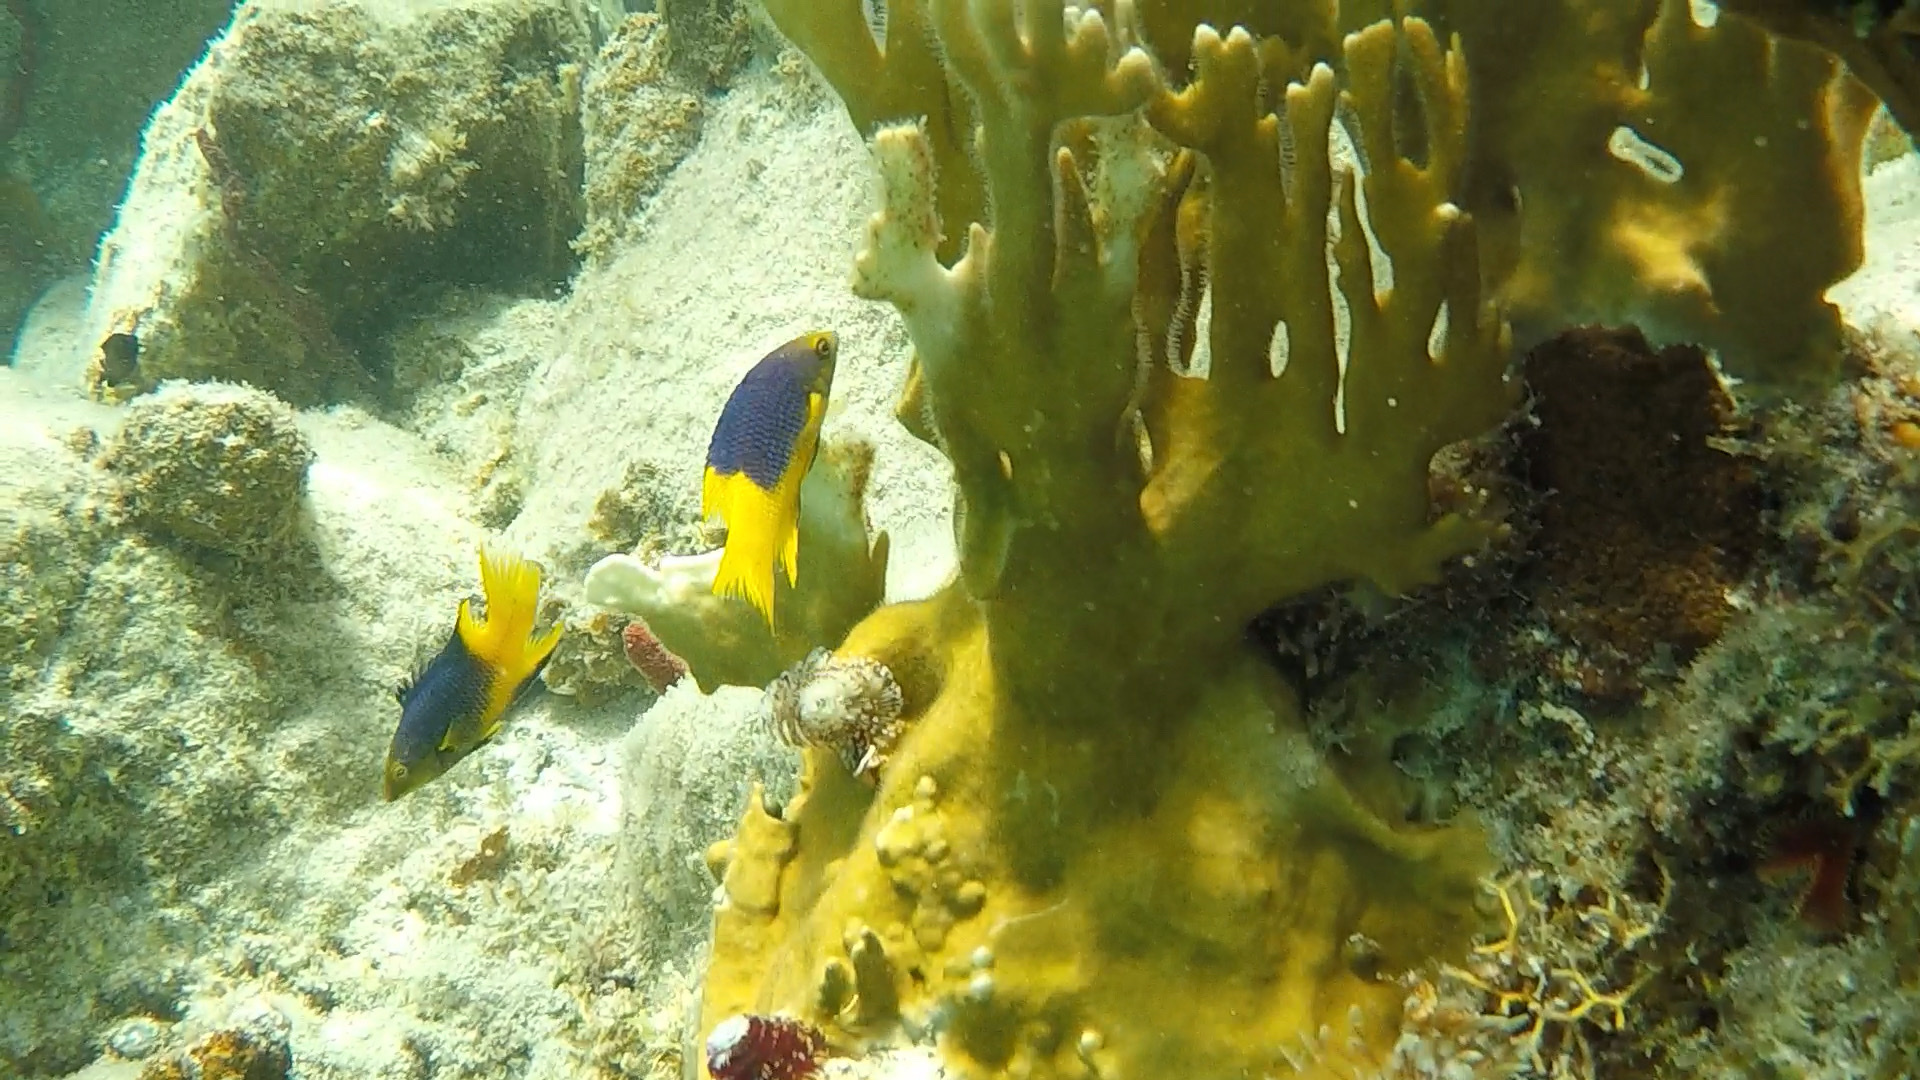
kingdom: Animalia
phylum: Chordata
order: Perciformes
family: Labridae
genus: Bodianus
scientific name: Bodianus rufus
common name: Spanish hogfish
